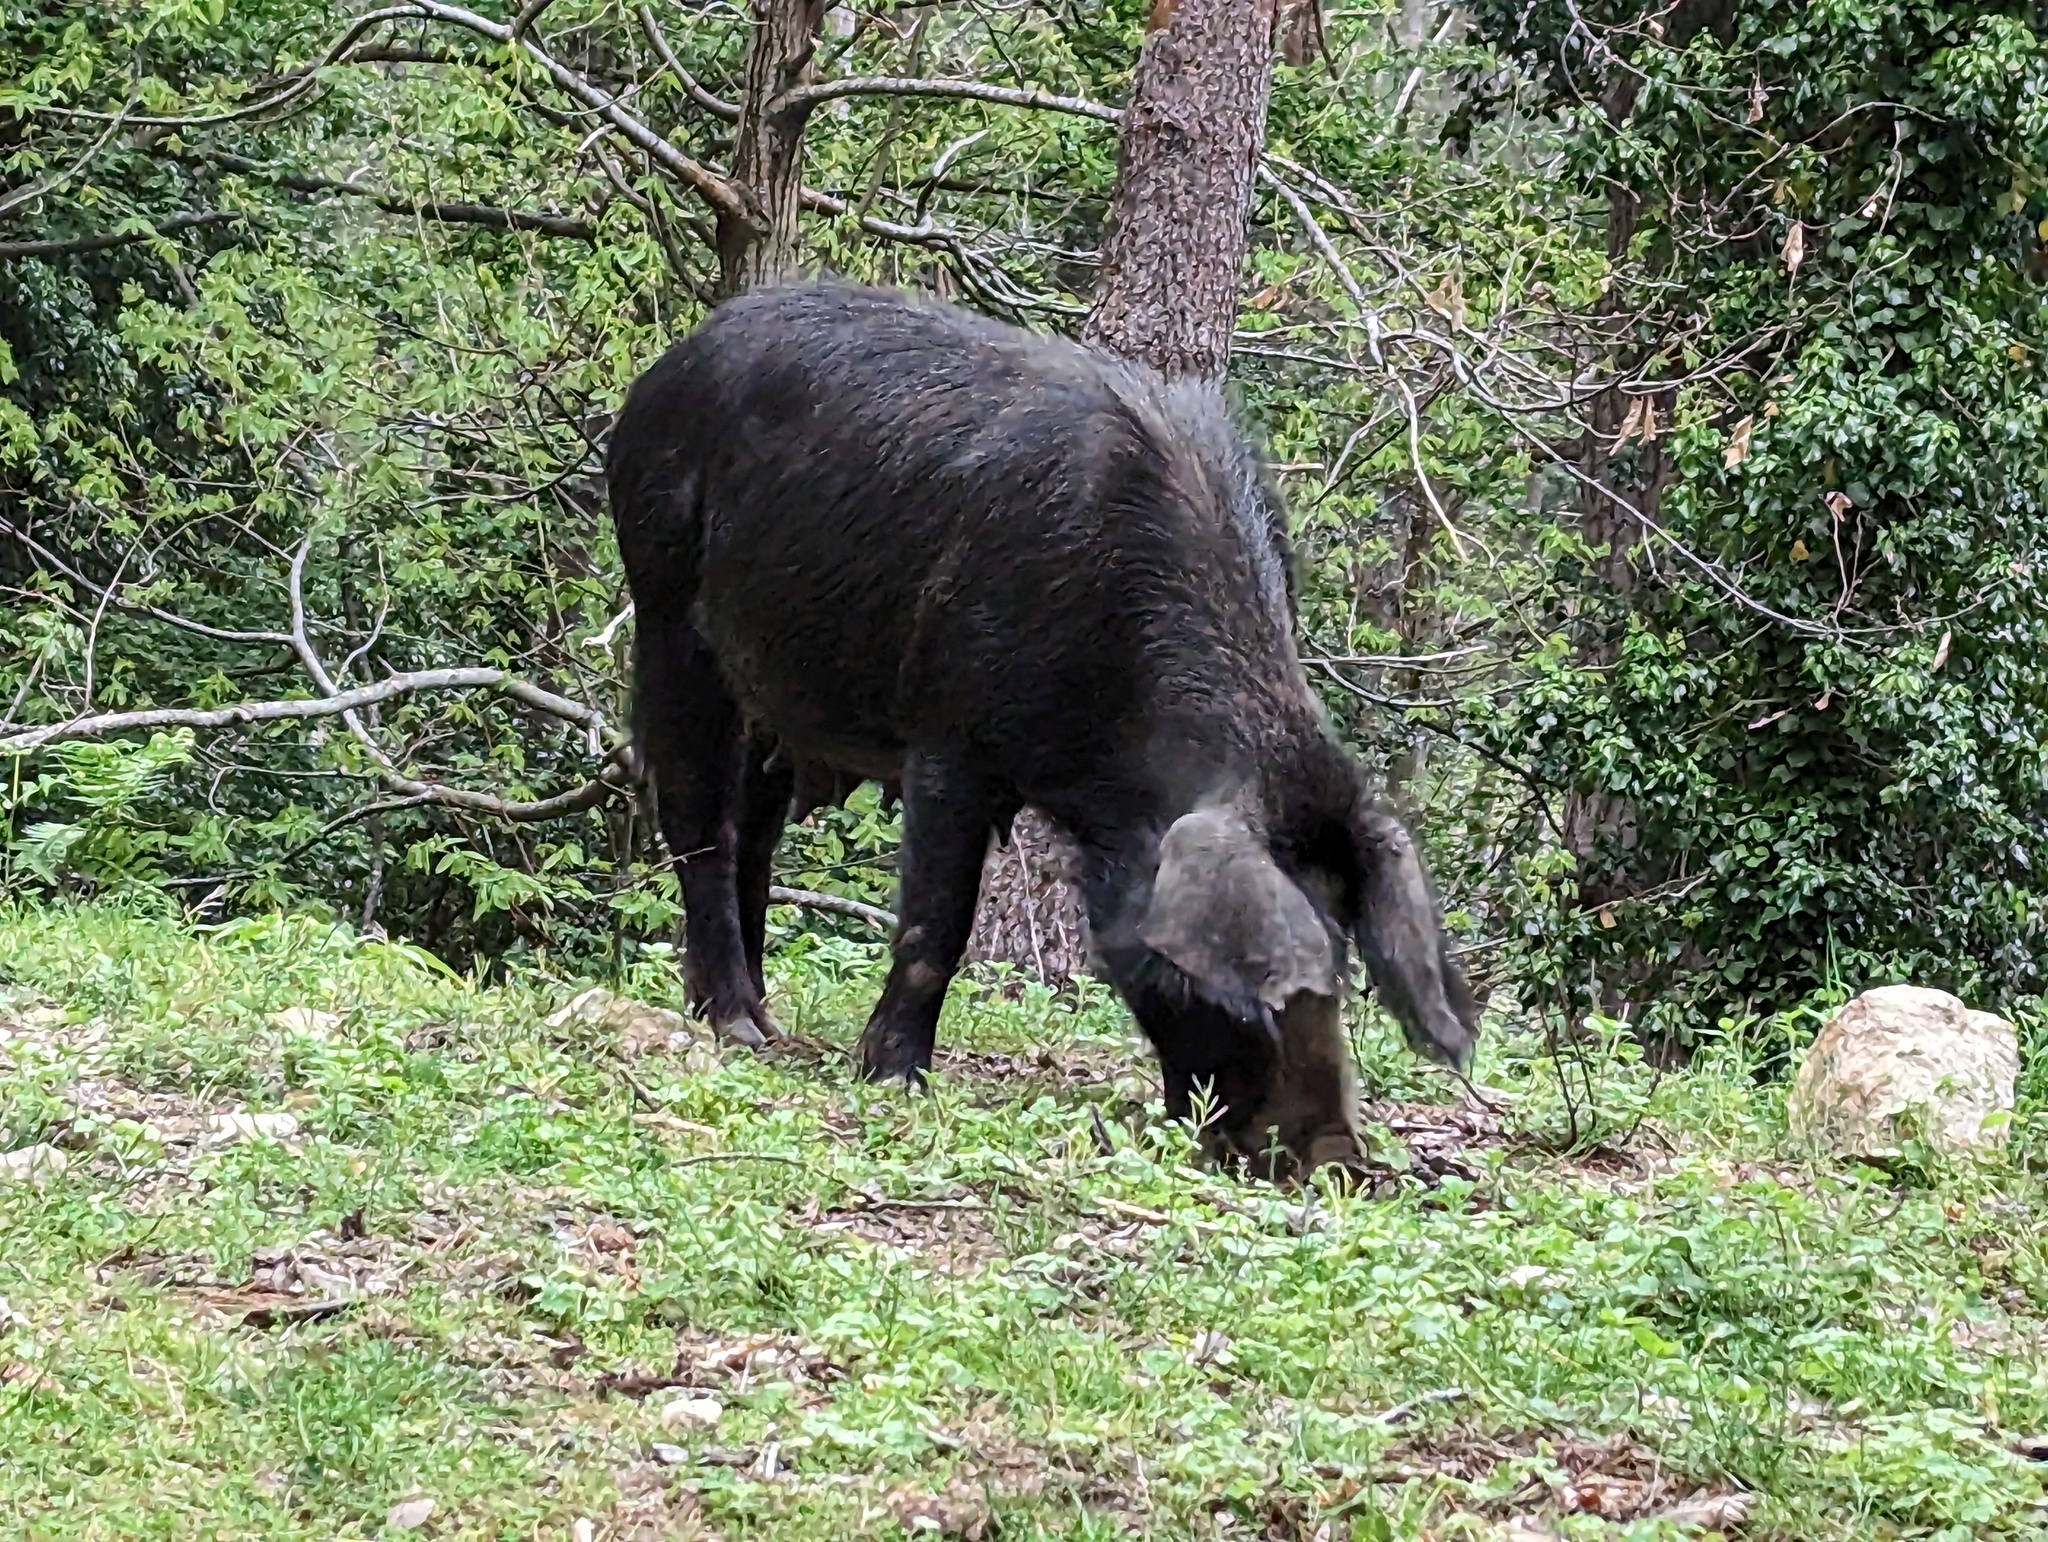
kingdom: Animalia
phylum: Chordata
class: Mammalia
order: Artiodactyla
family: Suidae
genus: Sus
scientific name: Sus scrofa
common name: Wild boar
